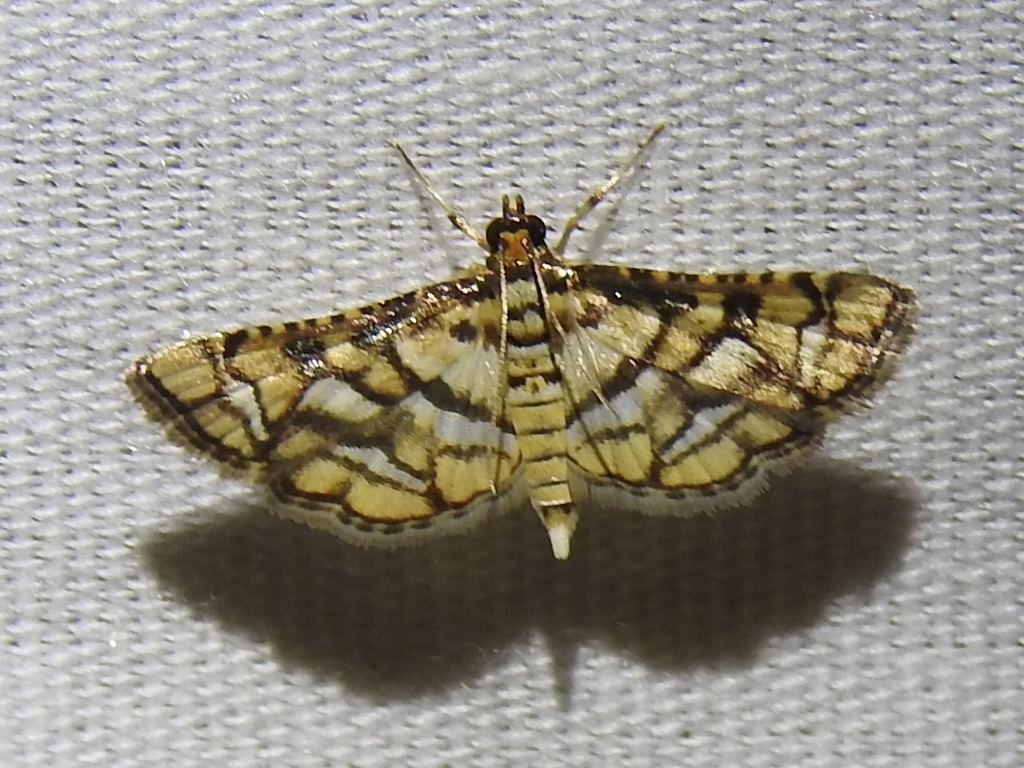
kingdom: Animalia
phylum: Arthropoda
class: Insecta
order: Lepidoptera
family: Crambidae
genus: Hileithia
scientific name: Hileithia magualis
